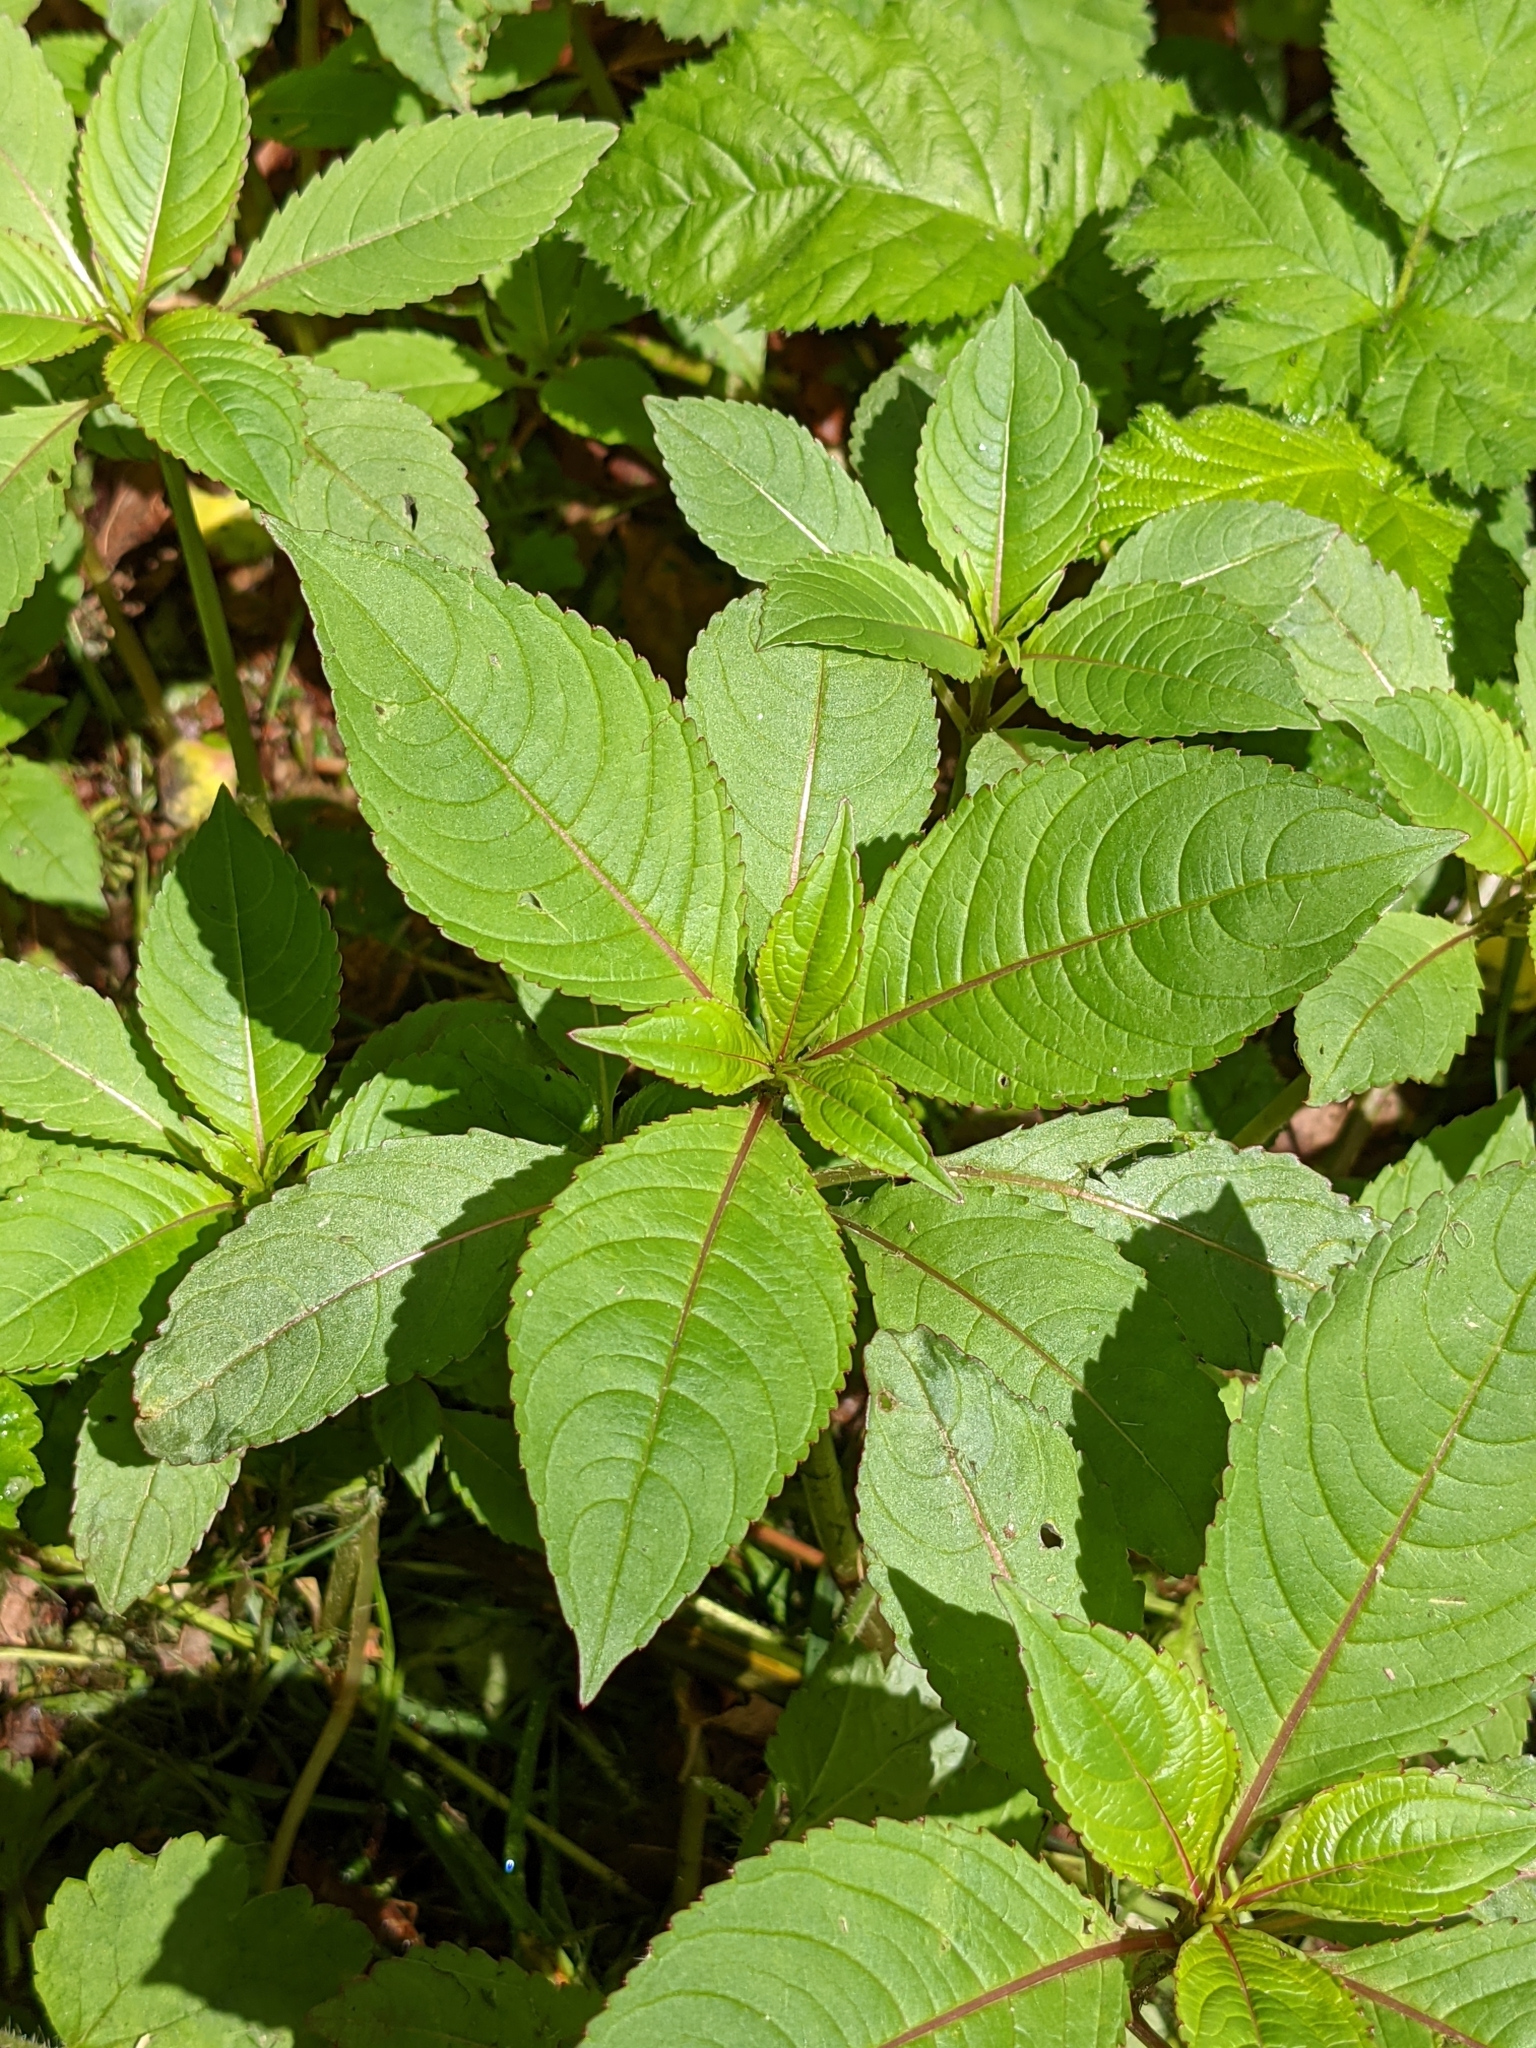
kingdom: Plantae
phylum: Tracheophyta
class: Magnoliopsida
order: Ericales
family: Balsaminaceae
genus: Impatiens
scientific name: Impatiens glandulifera
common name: Himalayan balsam
